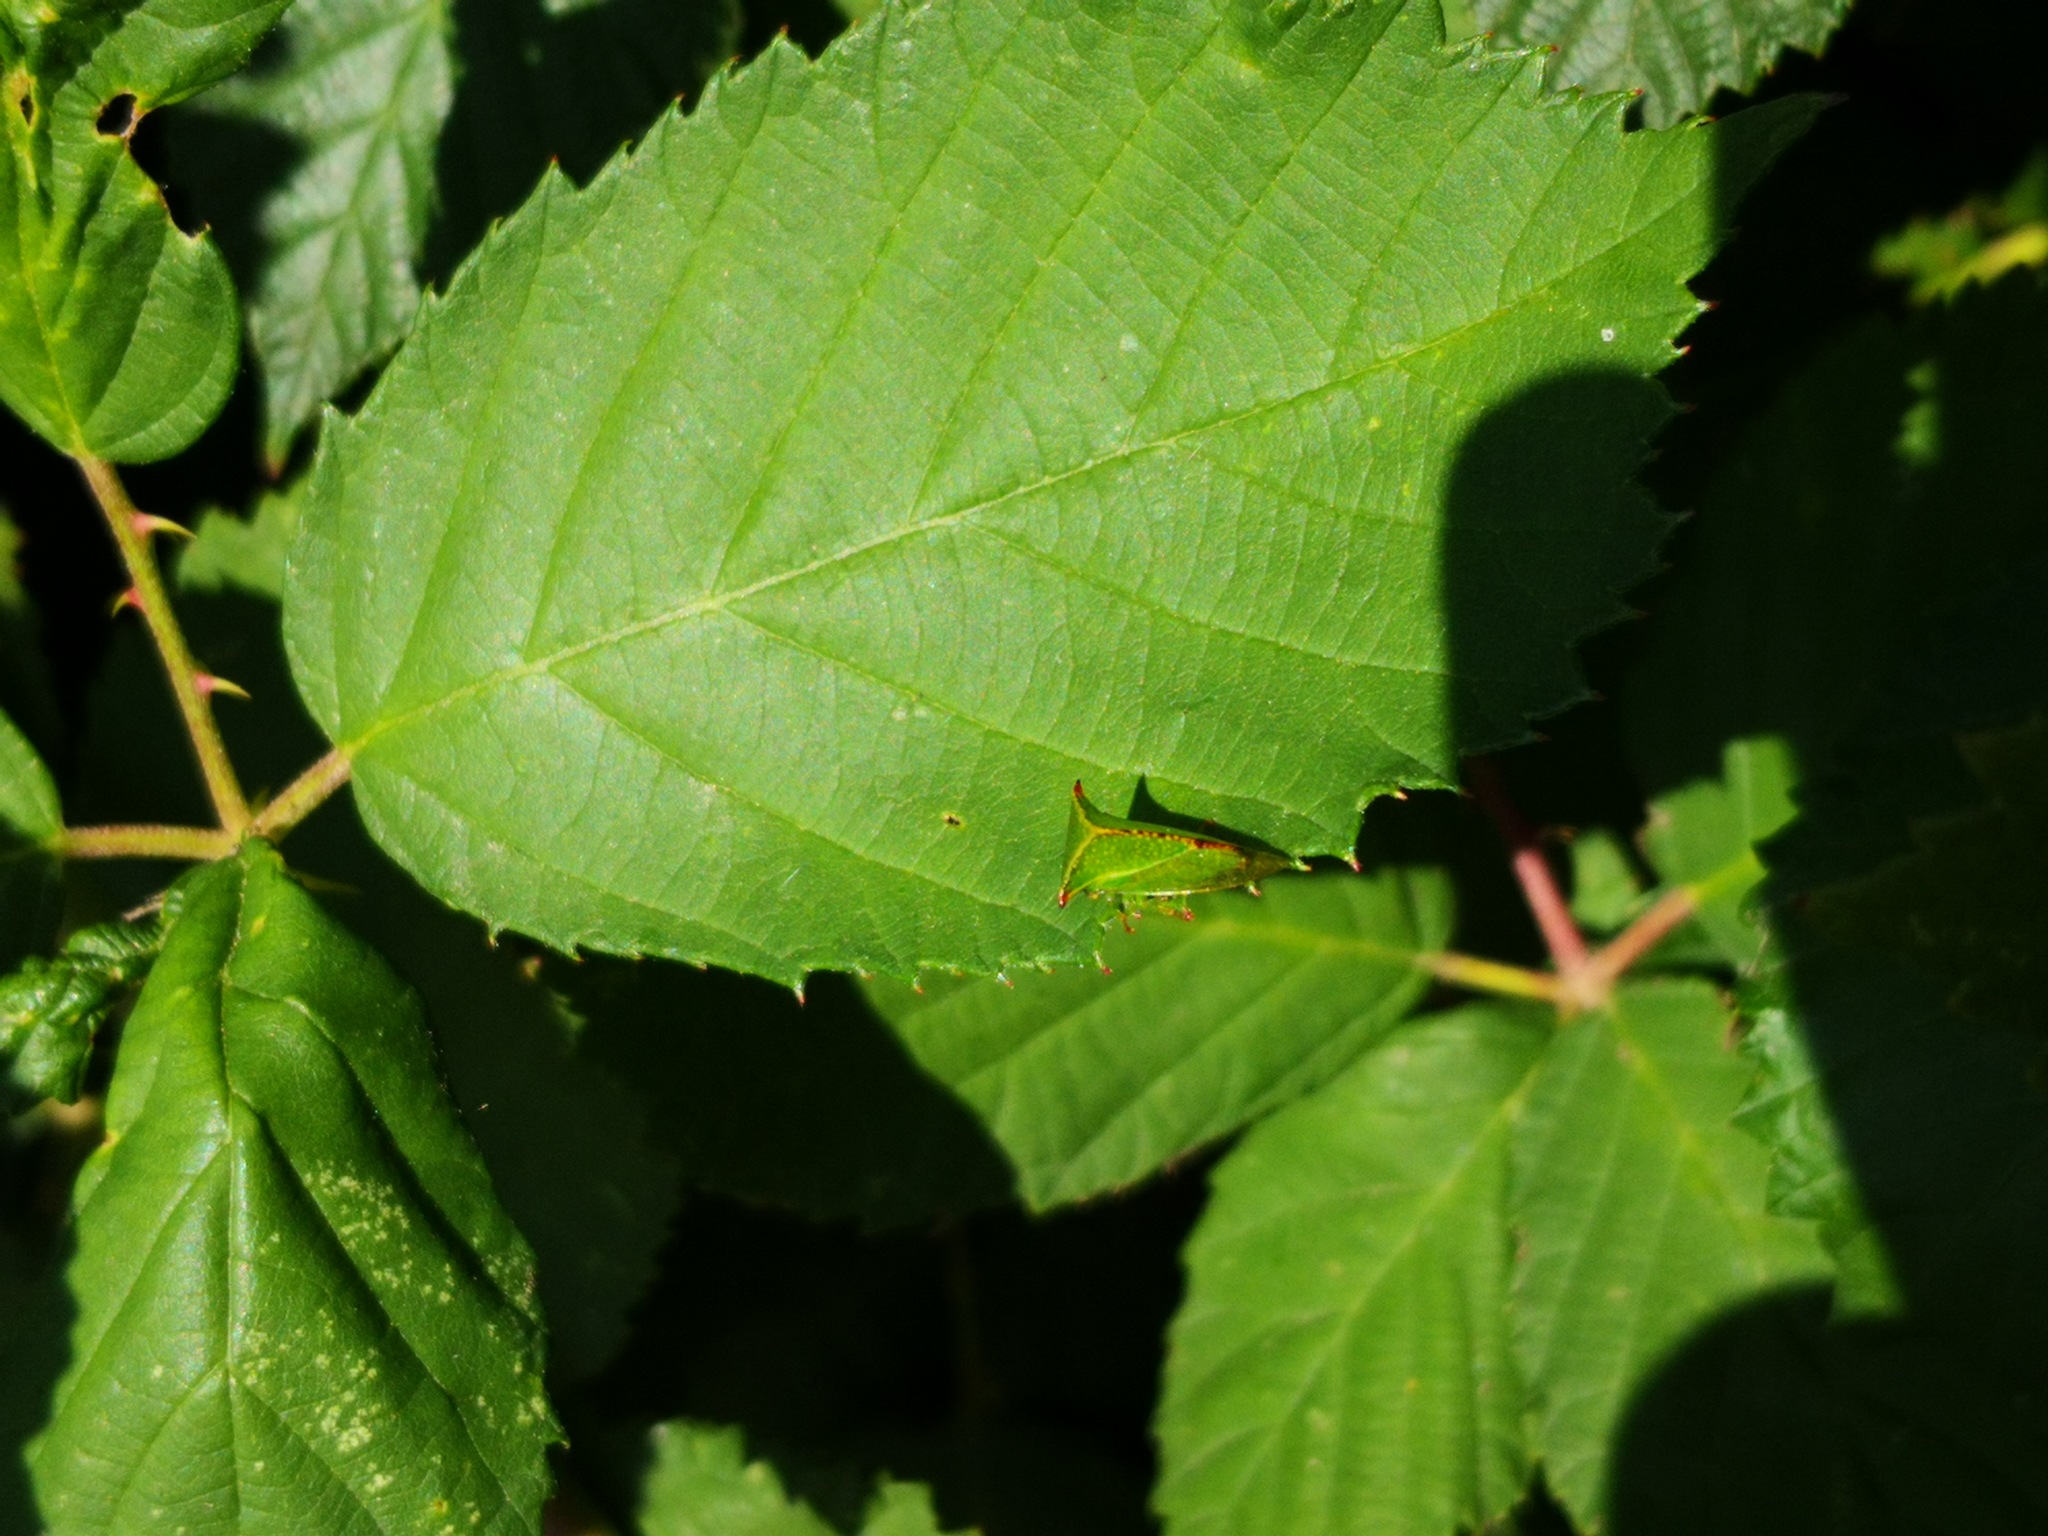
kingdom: Animalia
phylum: Arthropoda
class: Insecta
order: Hemiptera
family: Membracidae
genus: Stictocephala
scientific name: Stictocephala bisonia
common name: American buffalo treehopper
